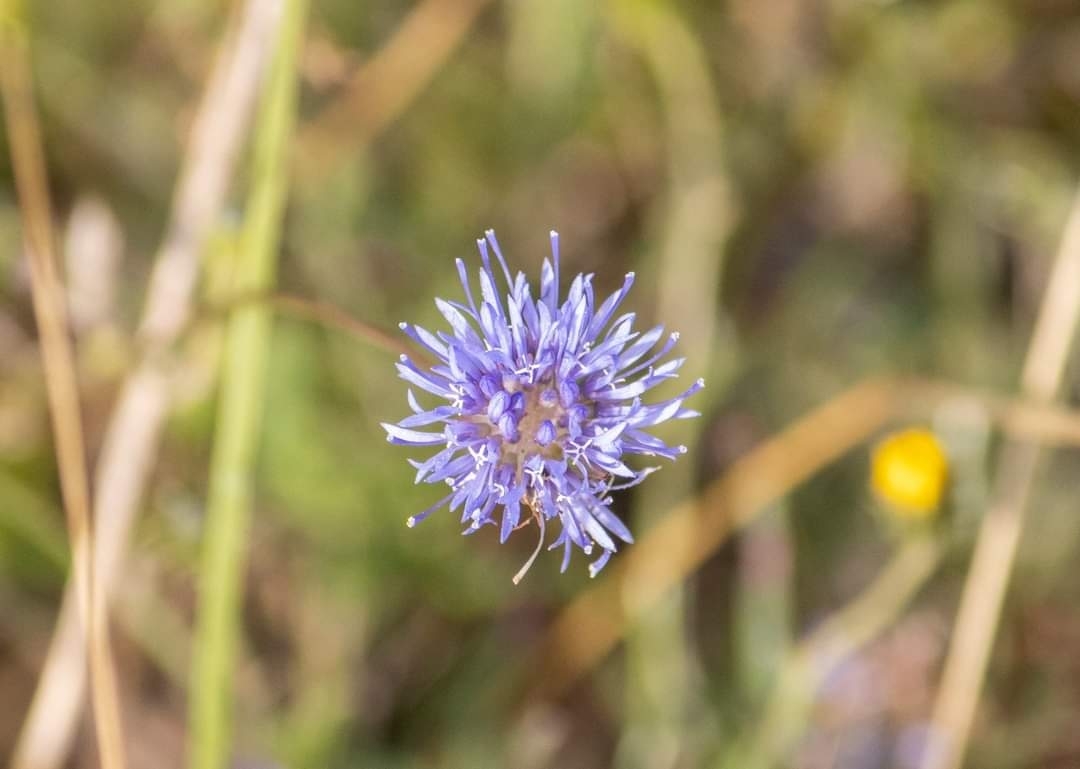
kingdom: Plantae
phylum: Tracheophyta
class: Magnoliopsida
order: Asterales
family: Campanulaceae
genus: Jasione
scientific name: Jasione montana
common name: Sheep's-bit
